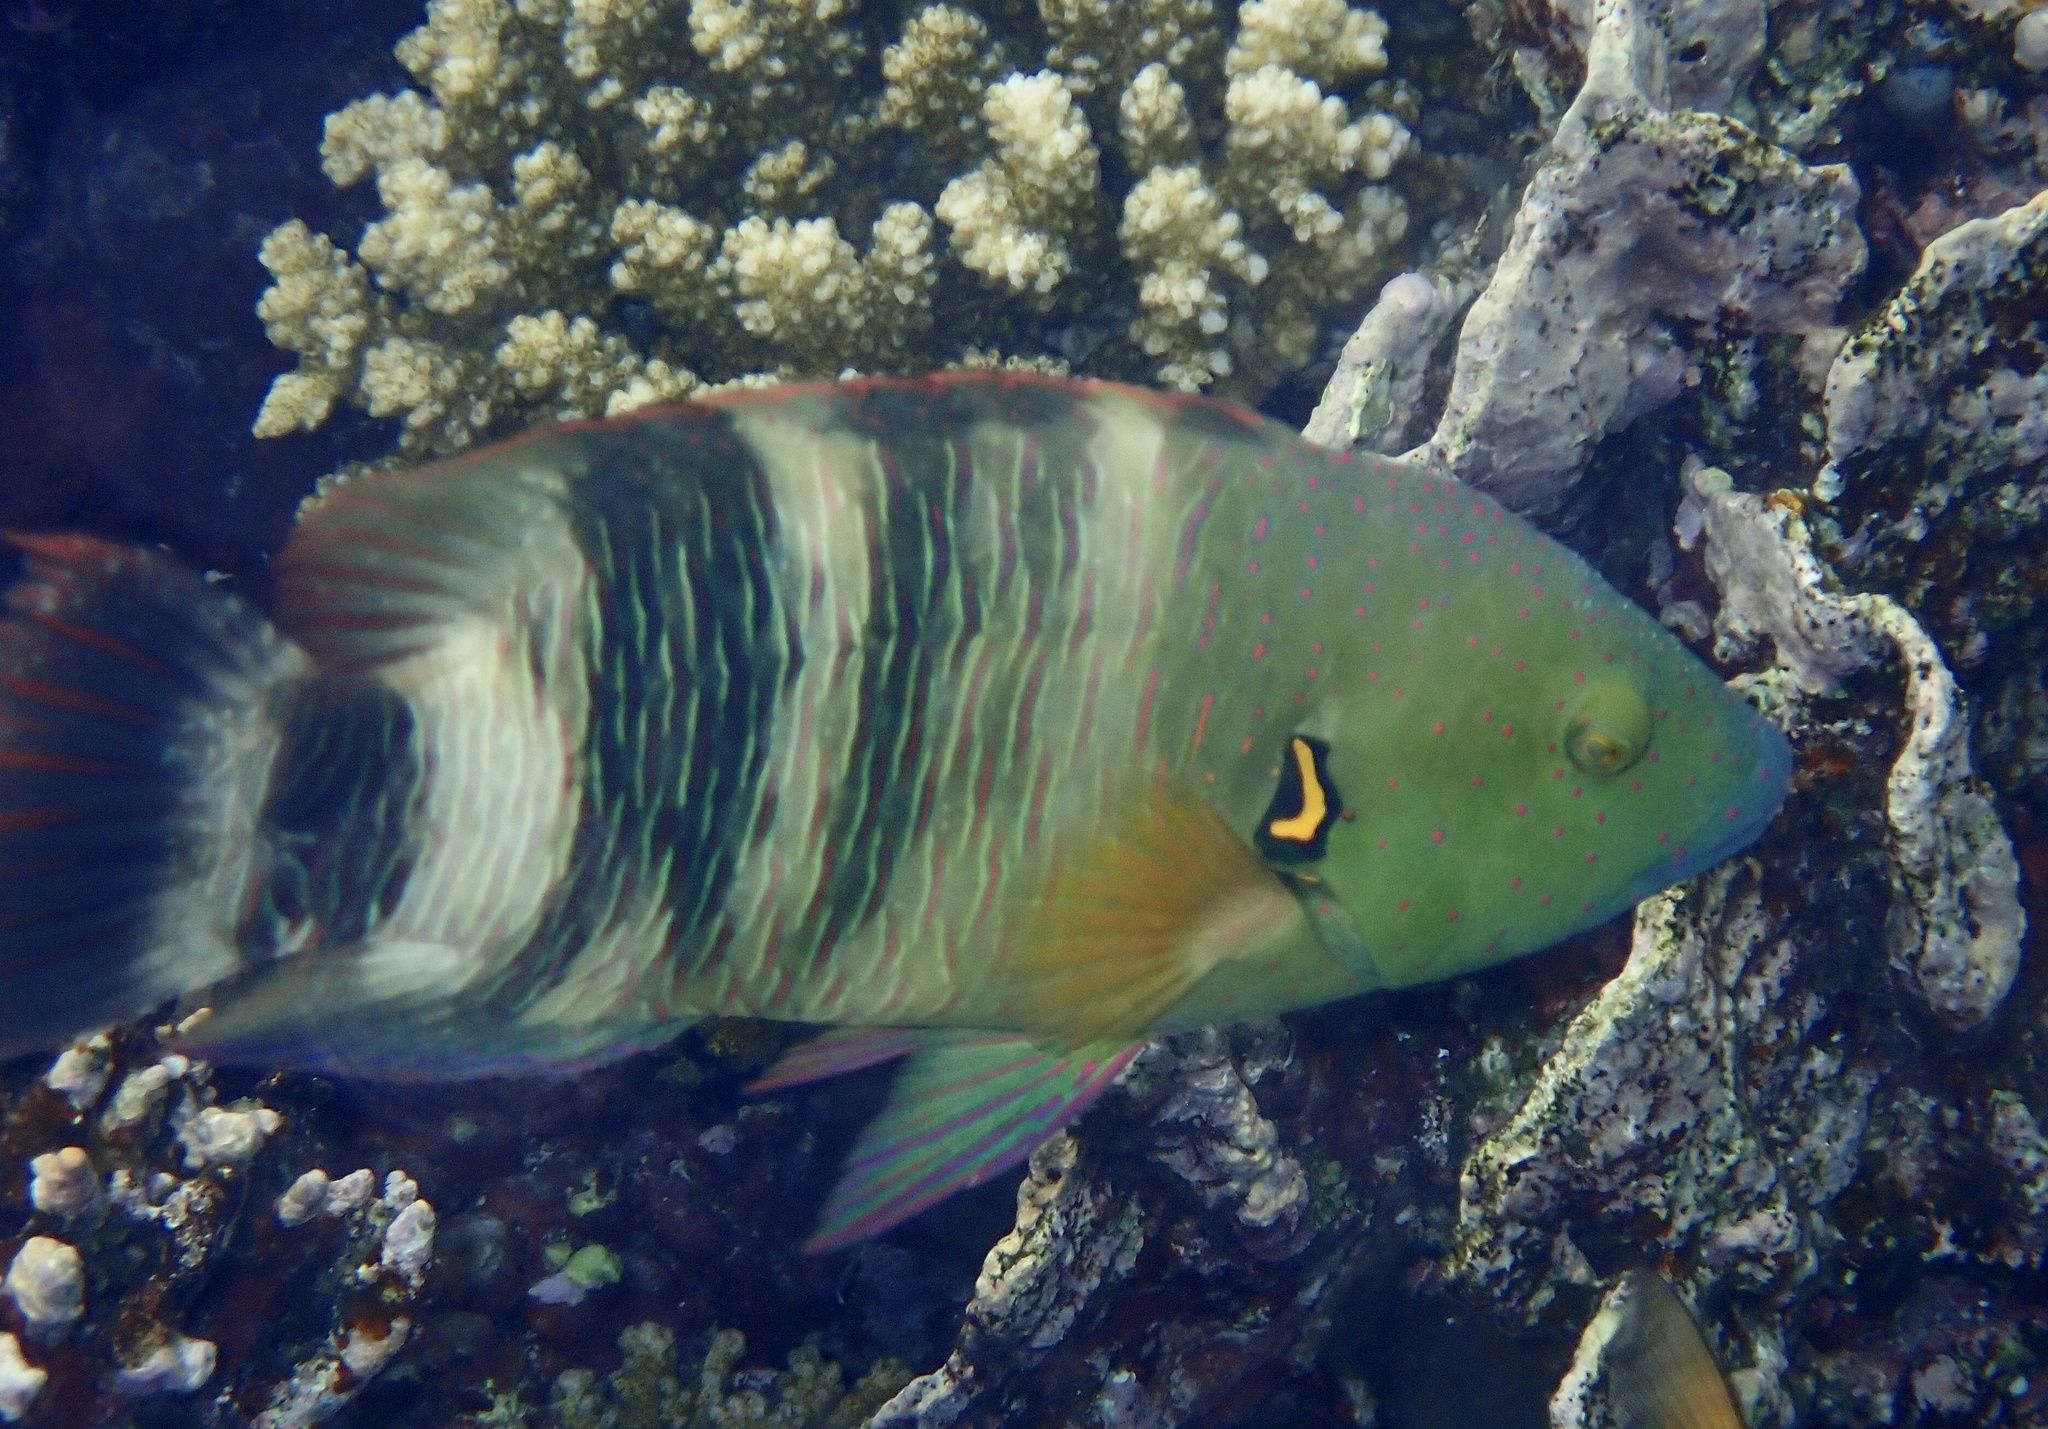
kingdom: Animalia
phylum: Chordata
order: Perciformes
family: Labridae
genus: Cheilinus
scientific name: Cheilinus lunulatus
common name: Broomtail wrasse
